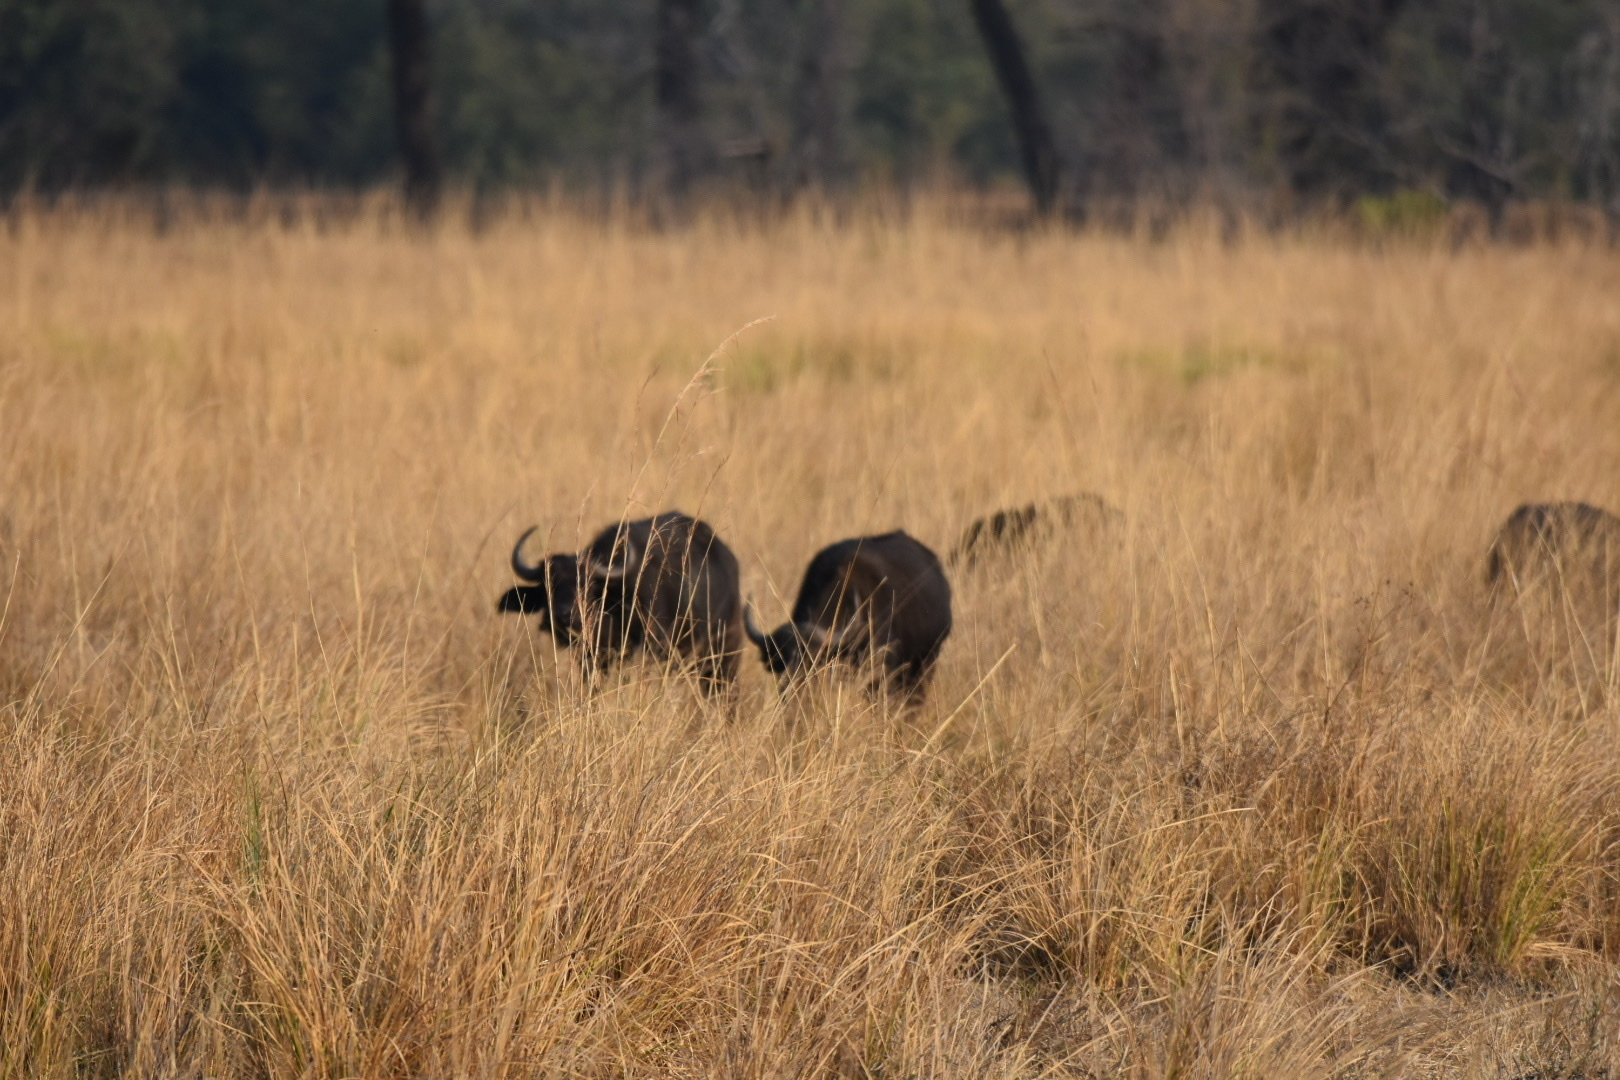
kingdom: Animalia
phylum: Chordata
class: Mammalia
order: Artiodactyla
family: Bovidae
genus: Syncerus
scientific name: Syncerus caffer
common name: African buffalo
